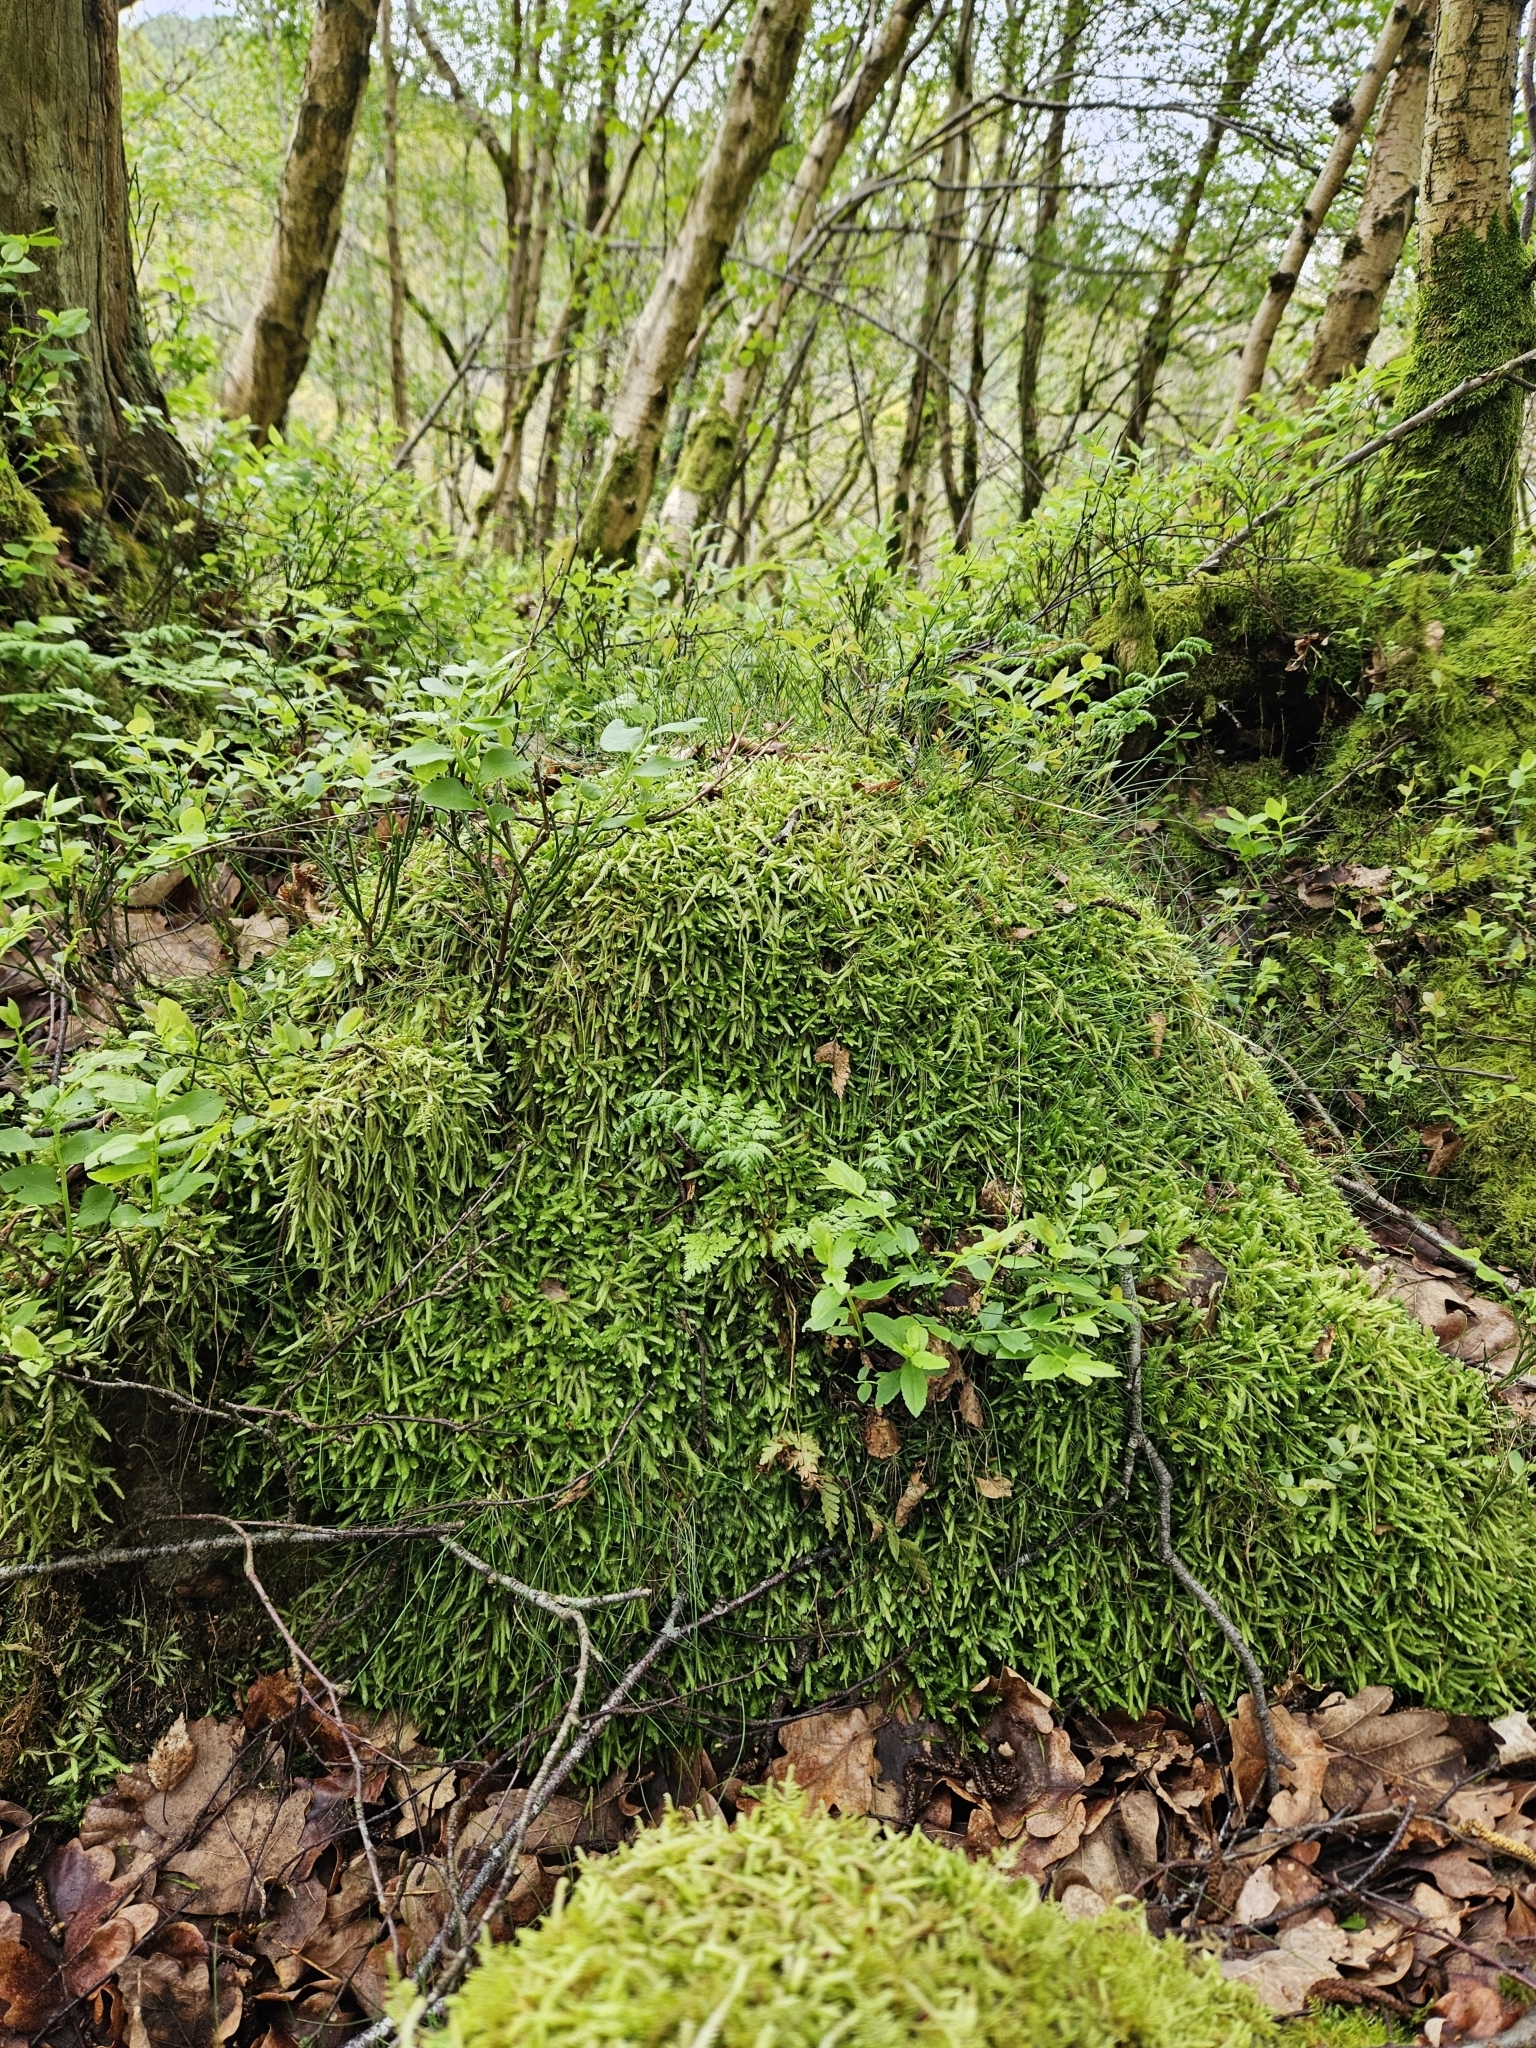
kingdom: Plantae
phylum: Bryophyta
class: Bryopsida
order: Hypnales
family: Plagiotheciaceae
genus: Plagiothecium
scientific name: Plagiothecium undulatum
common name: Waved silk-moss
